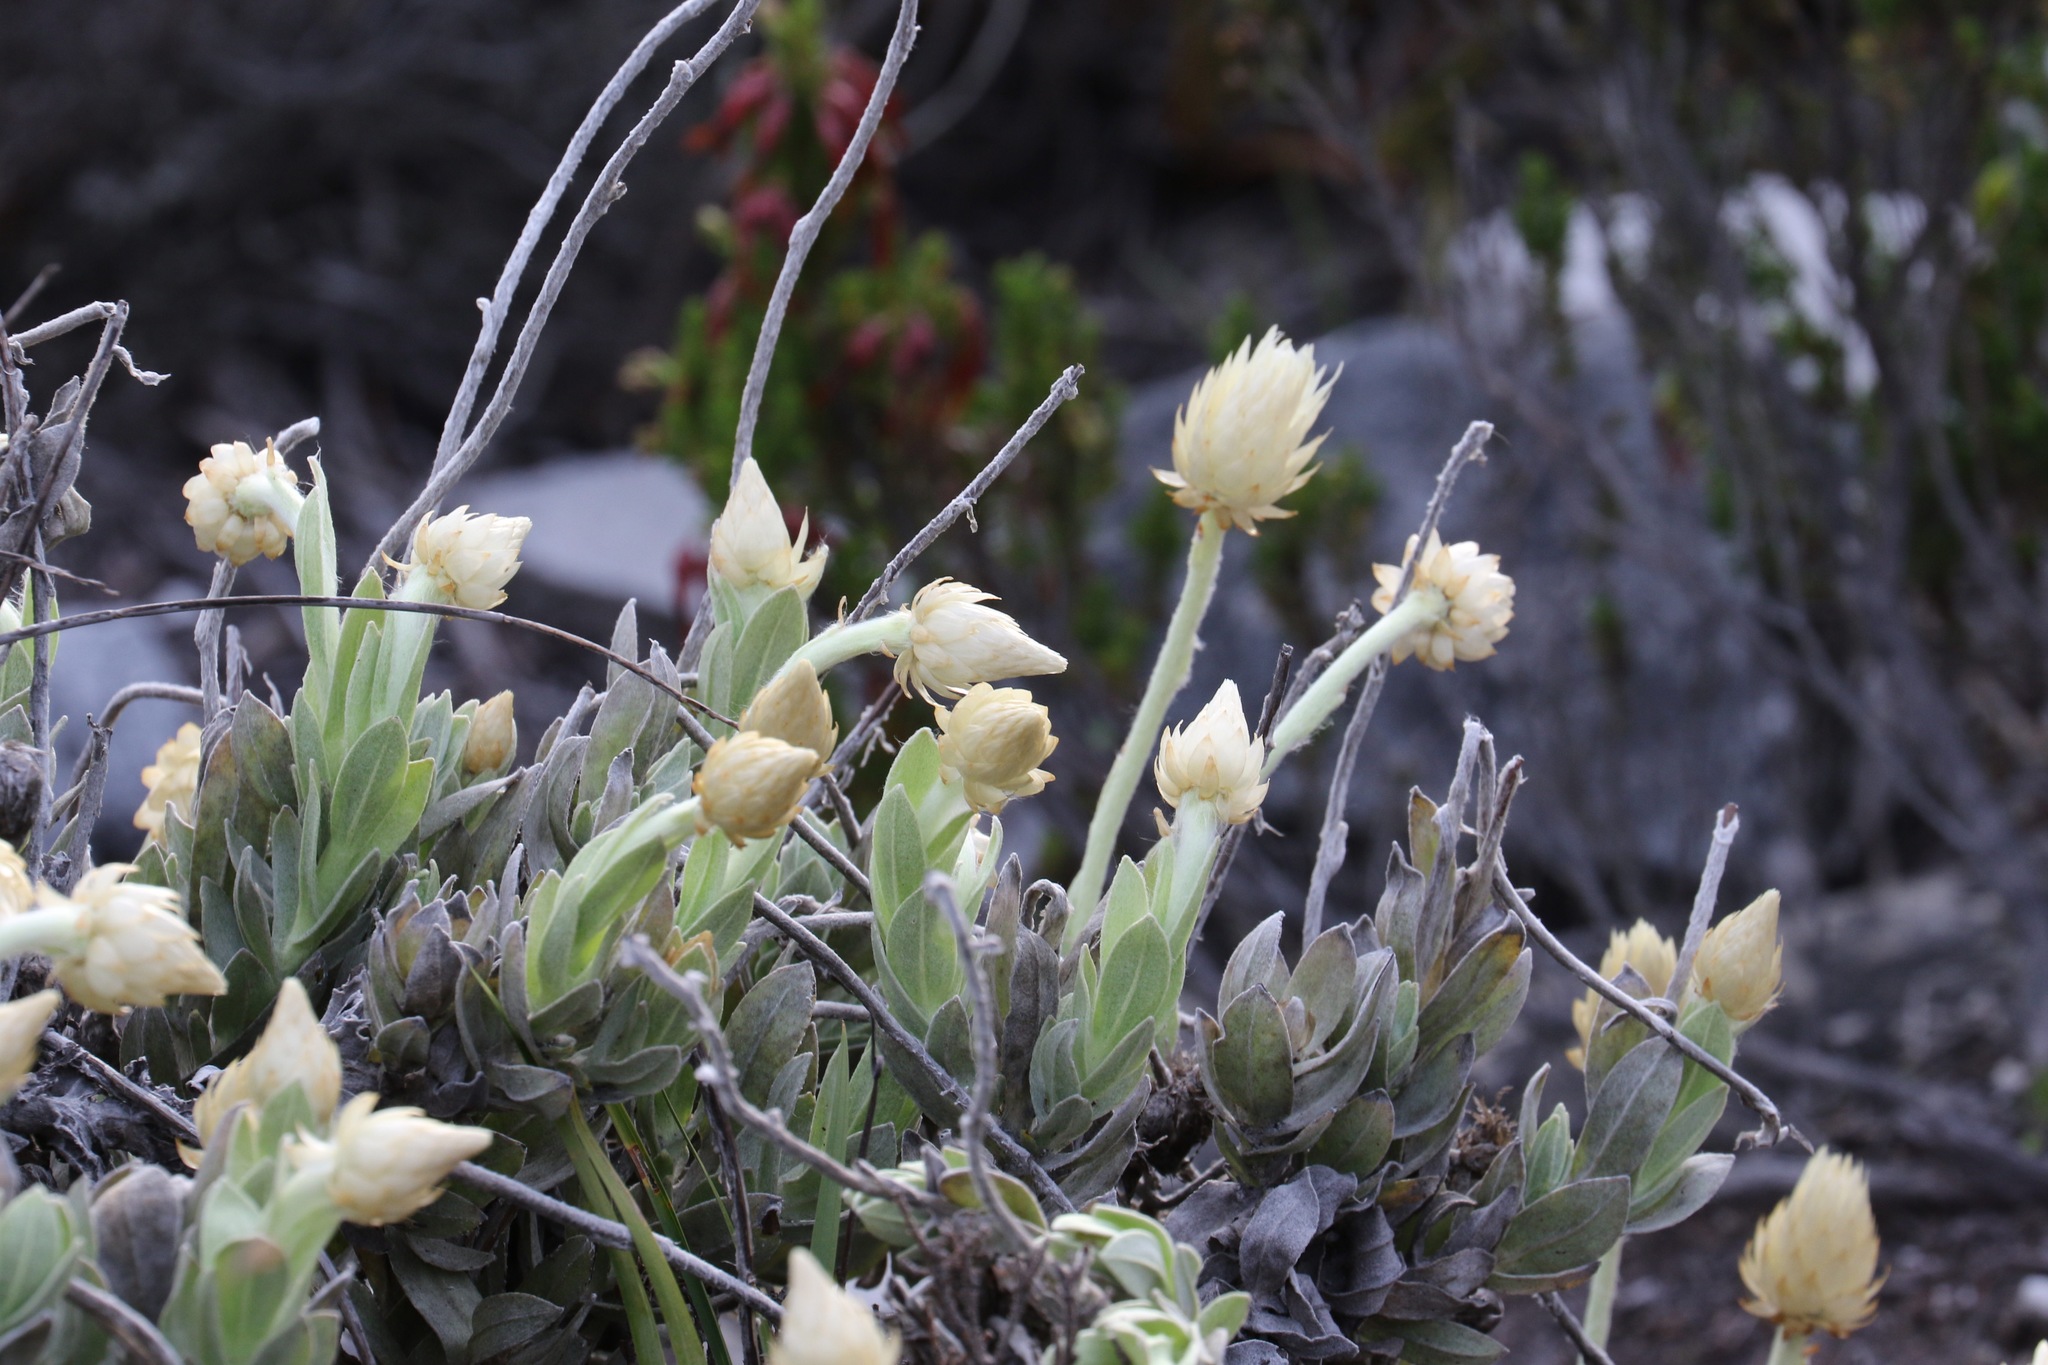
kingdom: Plantae
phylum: Tracheophyta
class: Magnoliopsida
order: Asterales
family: Asteraceae
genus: Syncarpha
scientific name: Syncarpha speciosissima
